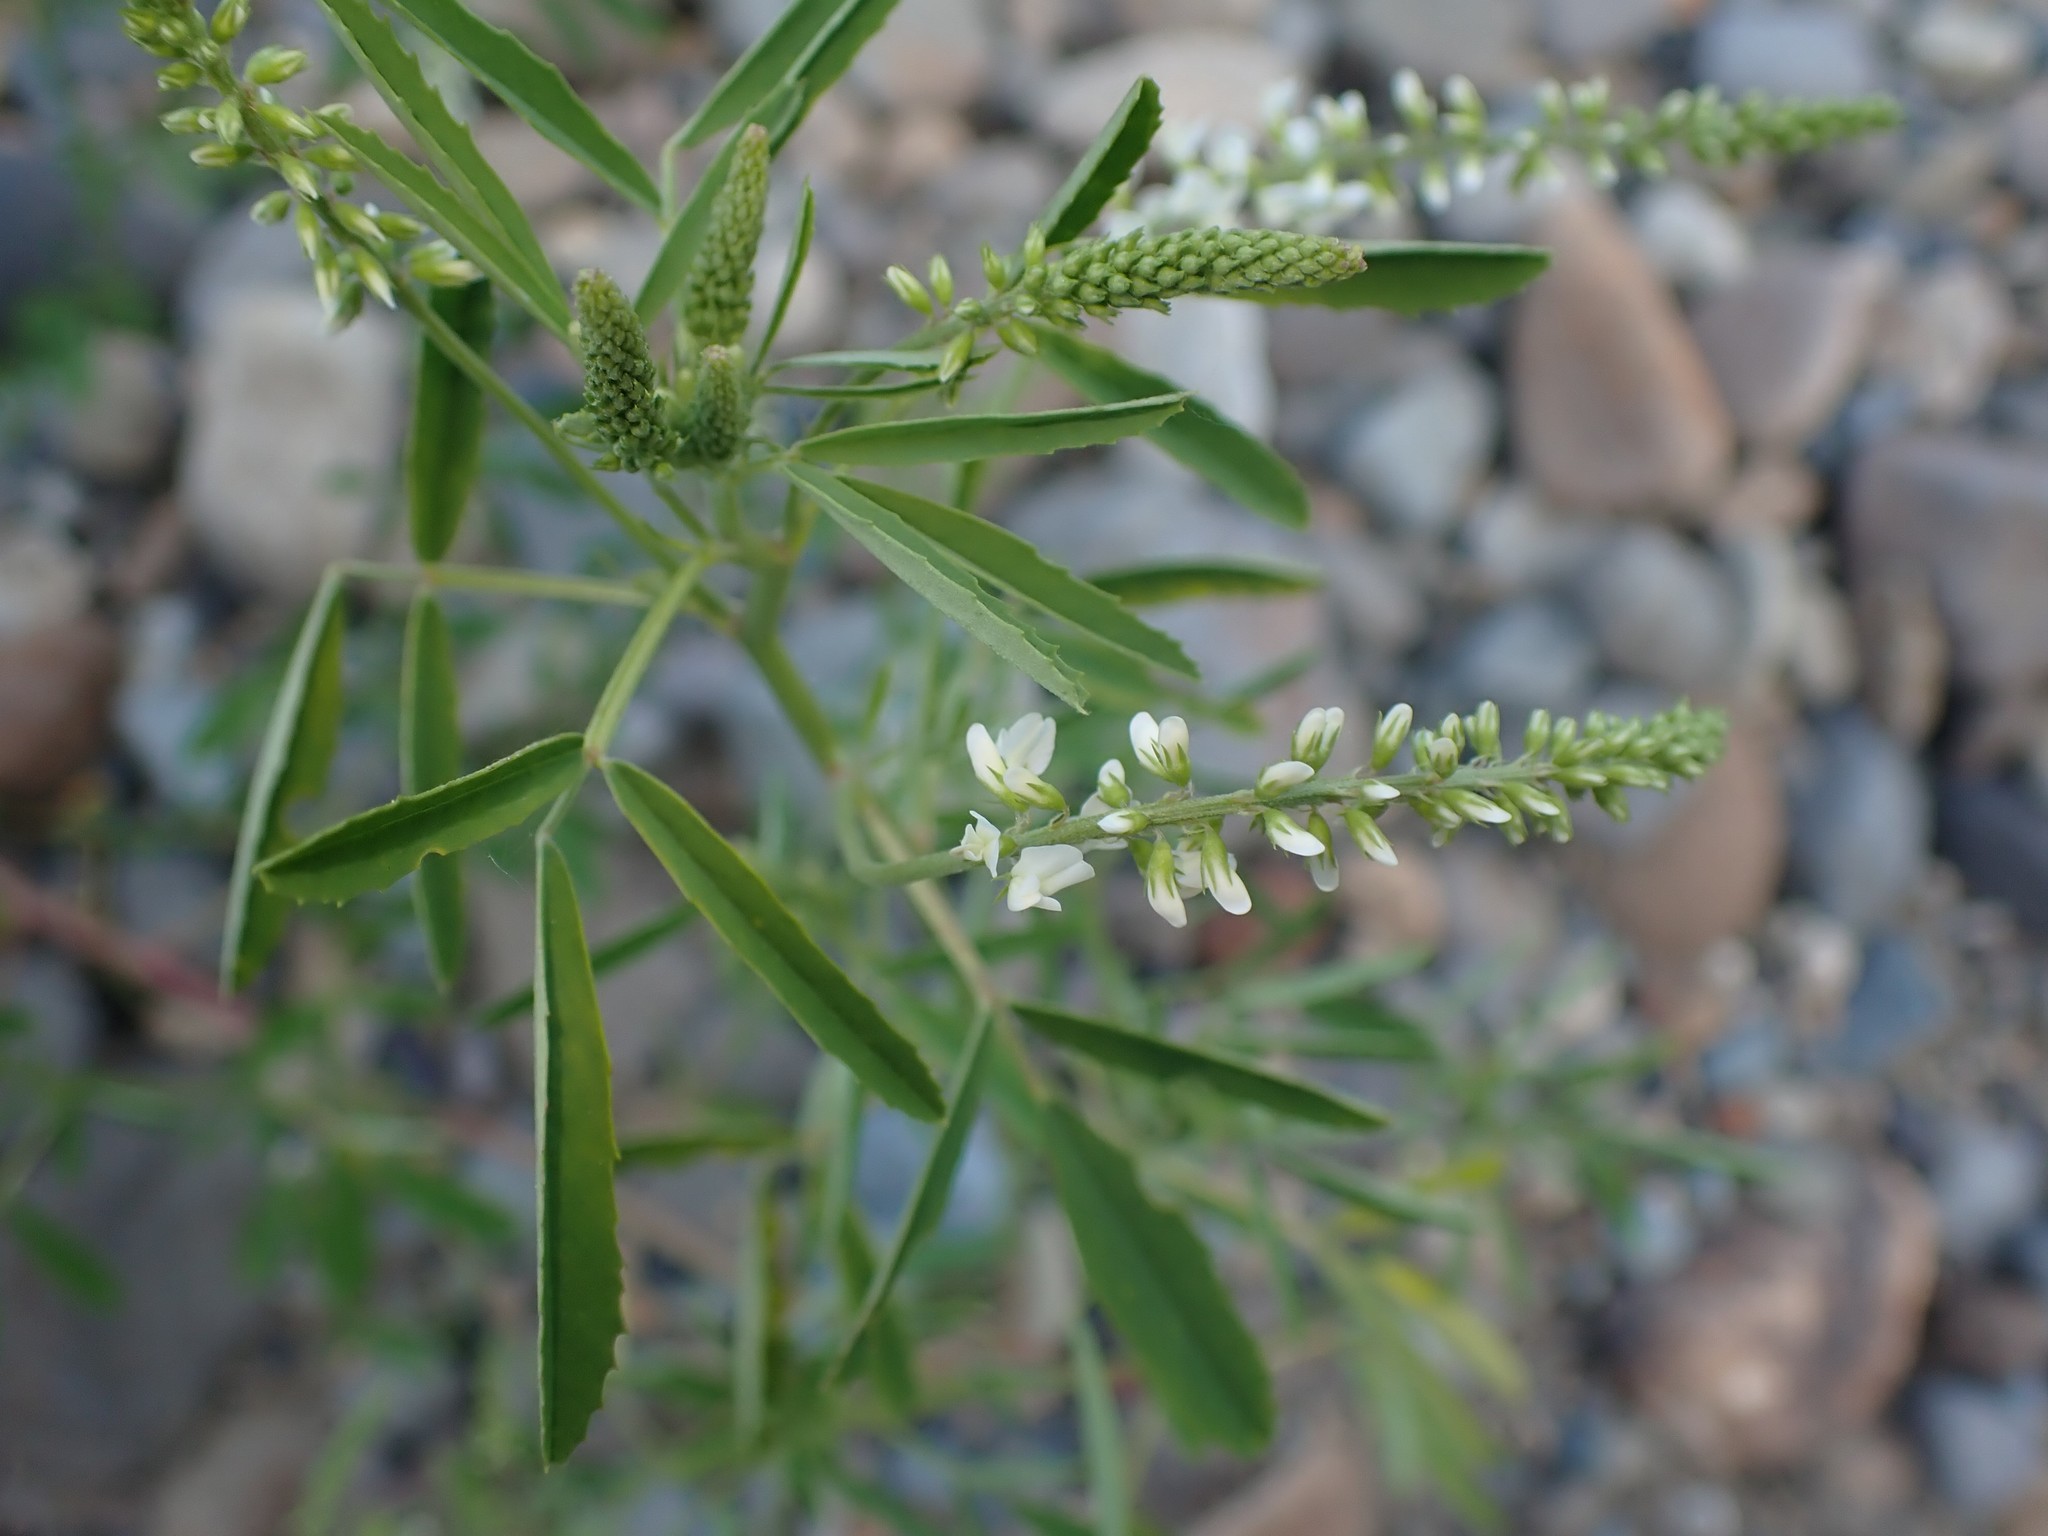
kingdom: Plantae
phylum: Tracheophyta
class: Magnoliopsida
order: Fabales
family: Fabaceae
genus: Melilotus
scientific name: Melilotus albus
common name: White melilot
